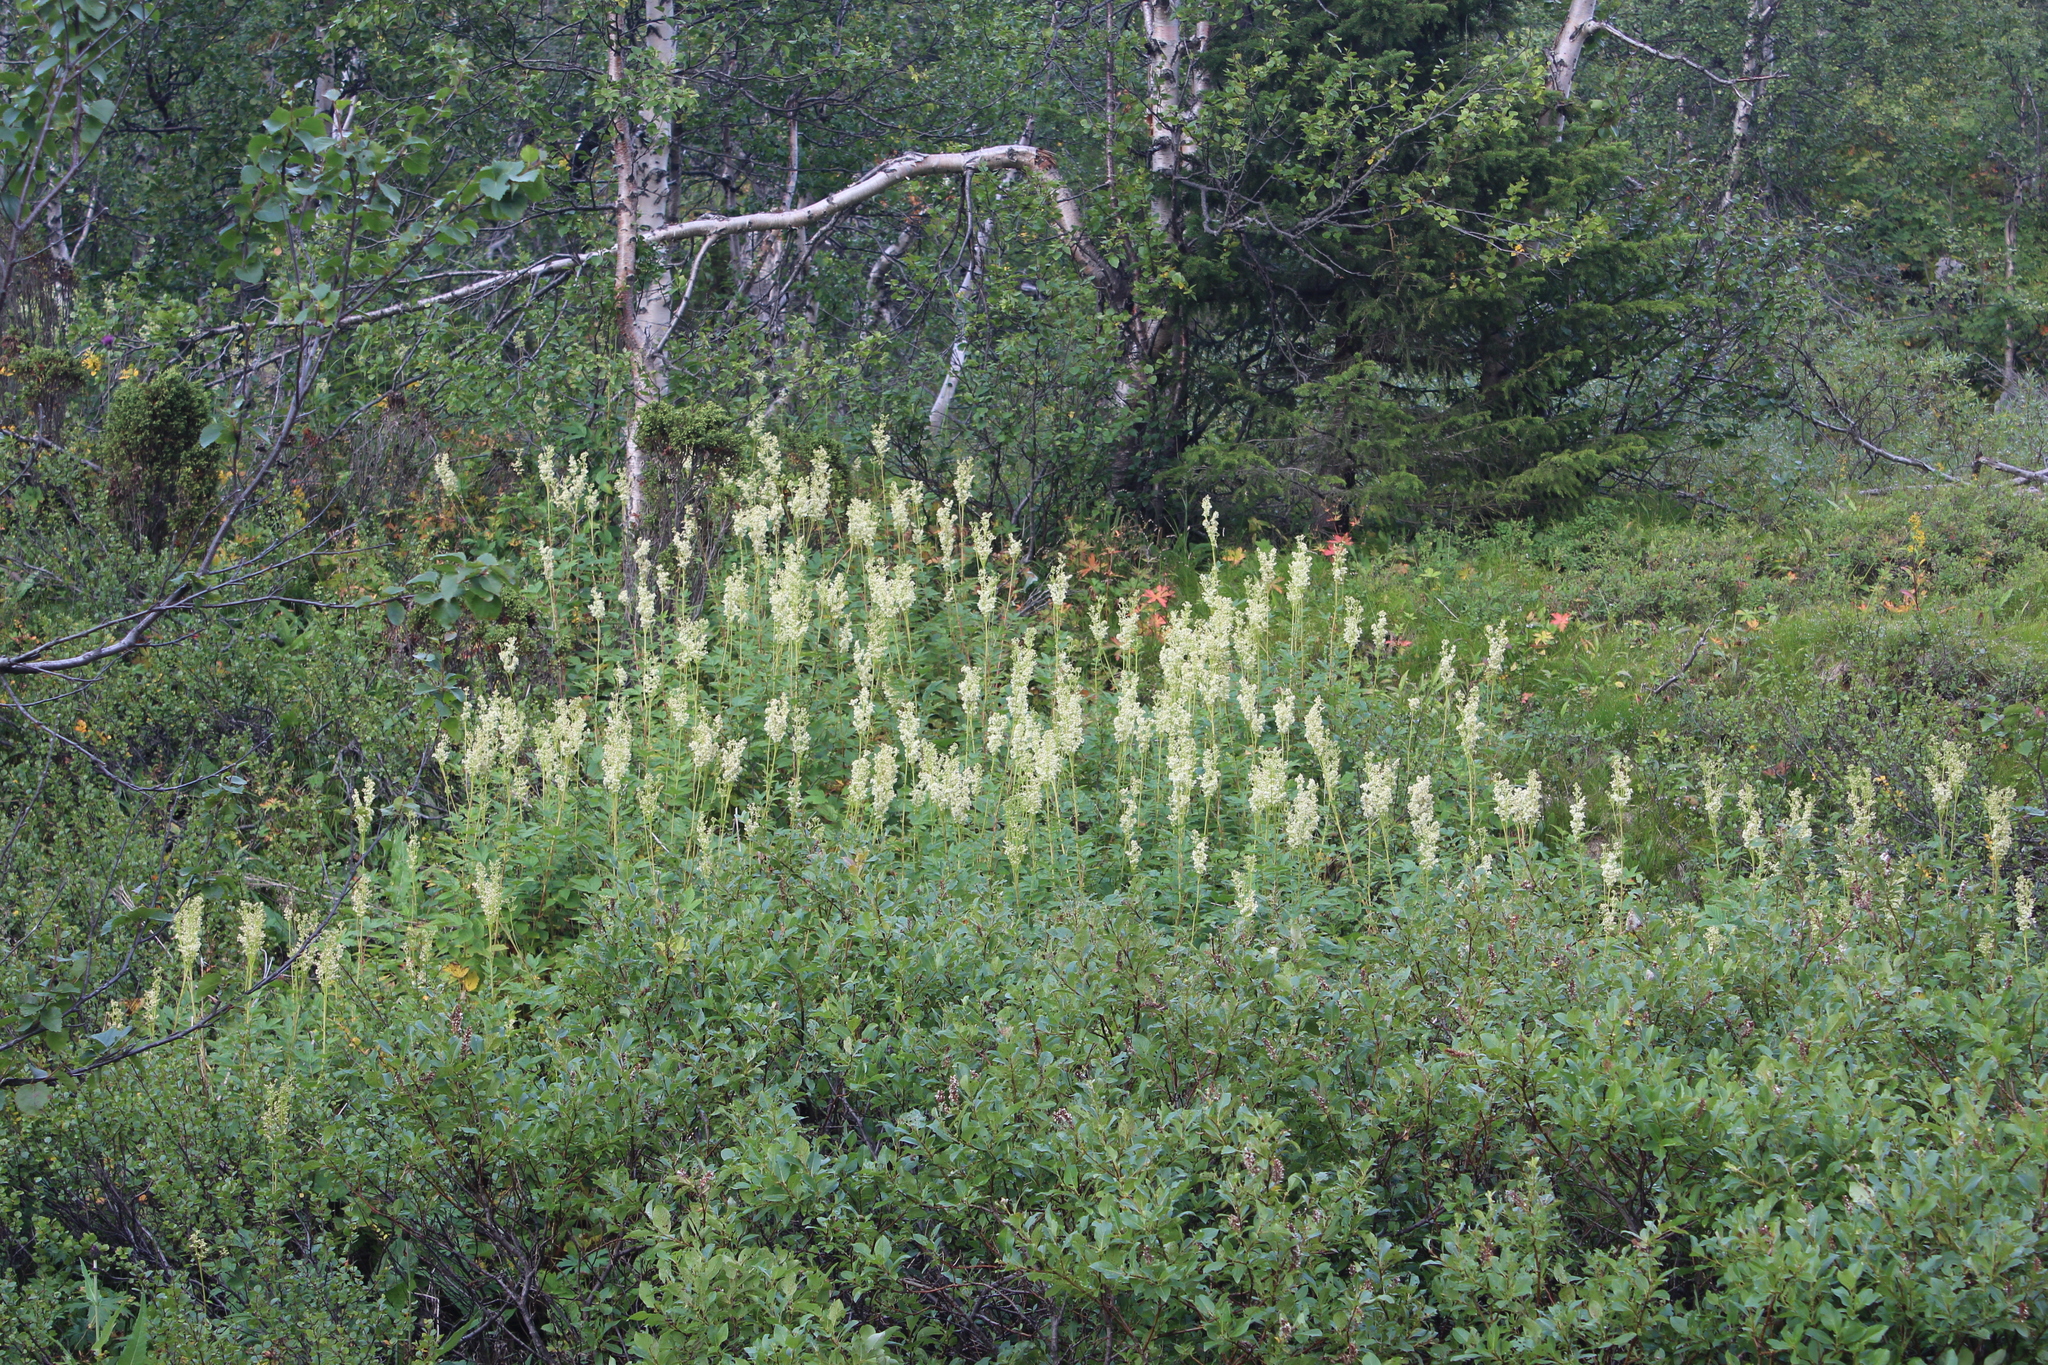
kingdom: Plantae
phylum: Tracheophyta
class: Magnoliopsida
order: Rosales
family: Rosaceae
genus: Filipendula
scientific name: Filipendula ulmaria
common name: Meadowsweet
